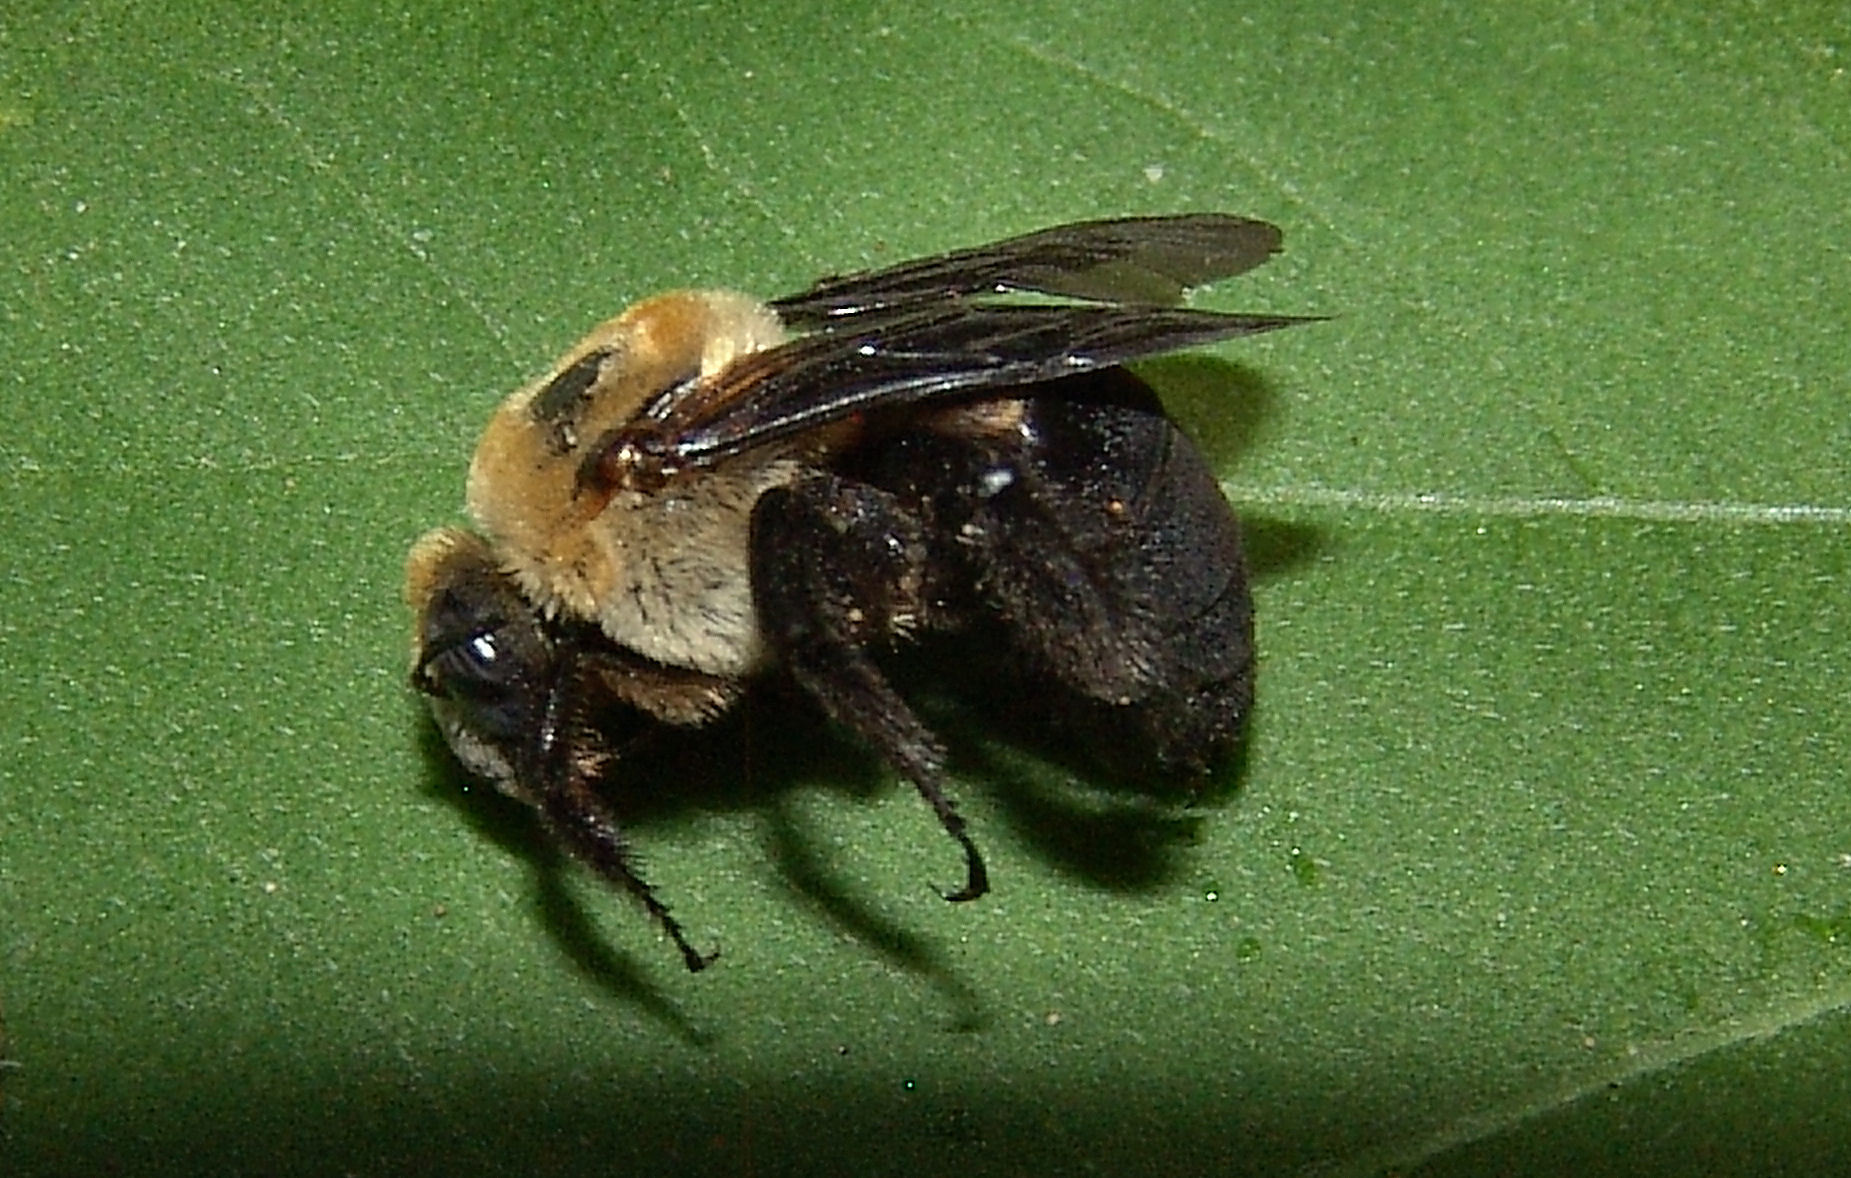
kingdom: Animalia
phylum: Arthropoda
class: Insecta
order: Hymenoptera
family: Apidae
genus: Ptilothrix
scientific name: Ptilothrix bombiformis
